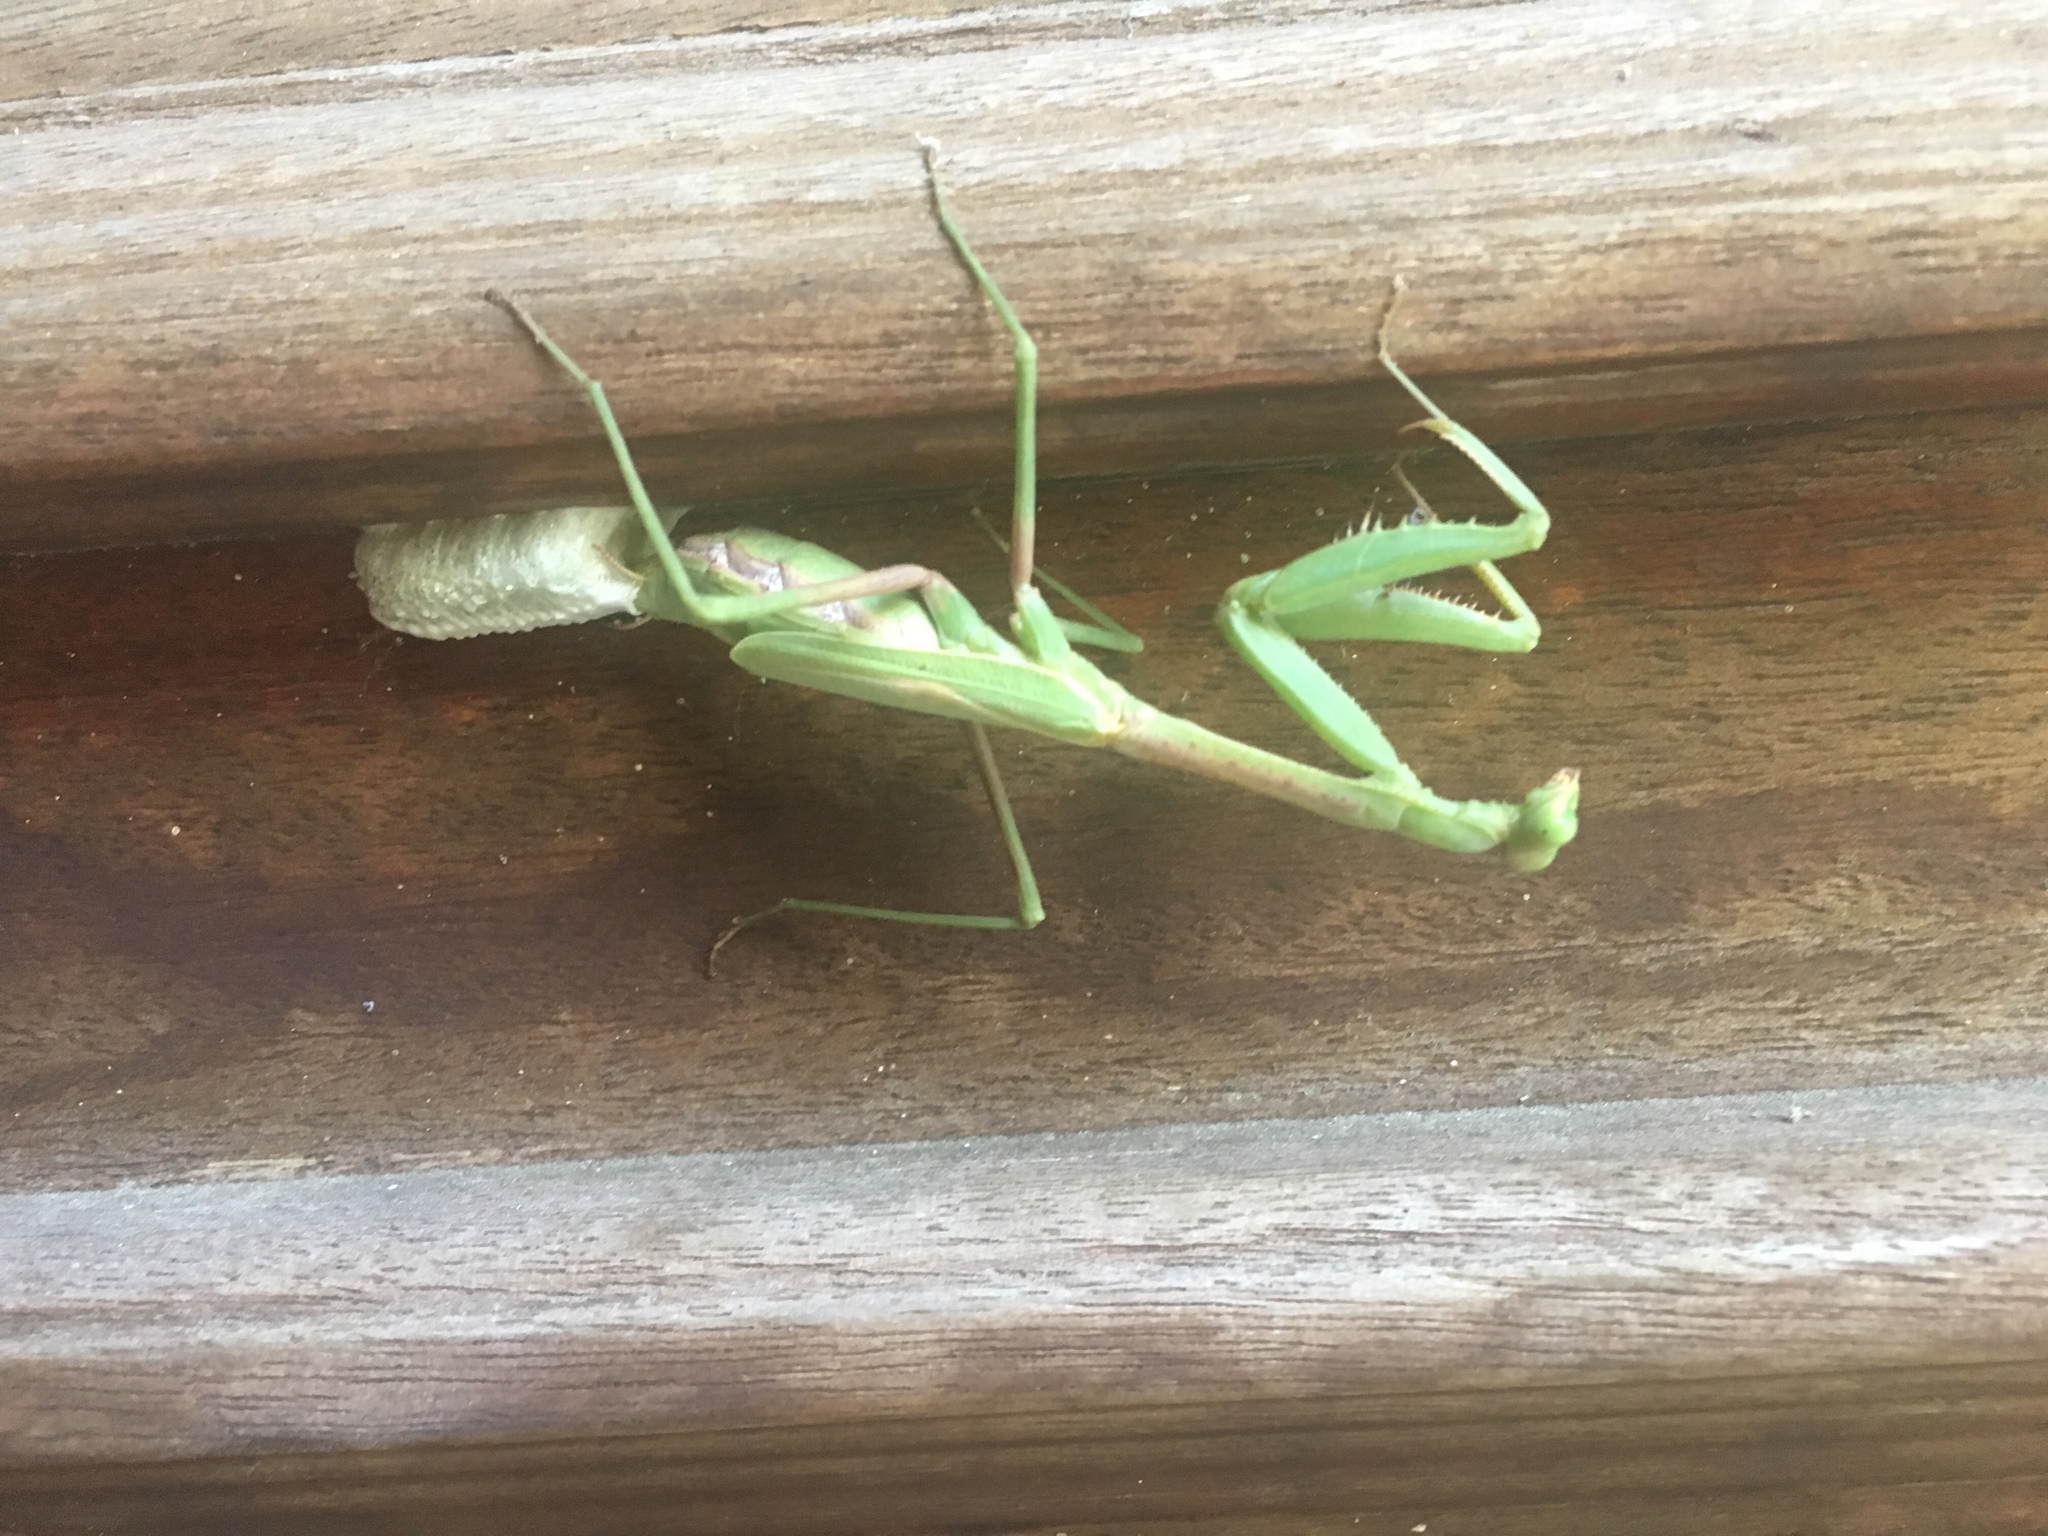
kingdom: Animalia
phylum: Arthropoda
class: Insecta
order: Mantodea
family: Mantidae
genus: Stagmomantis
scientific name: Stagmomantis carolina
